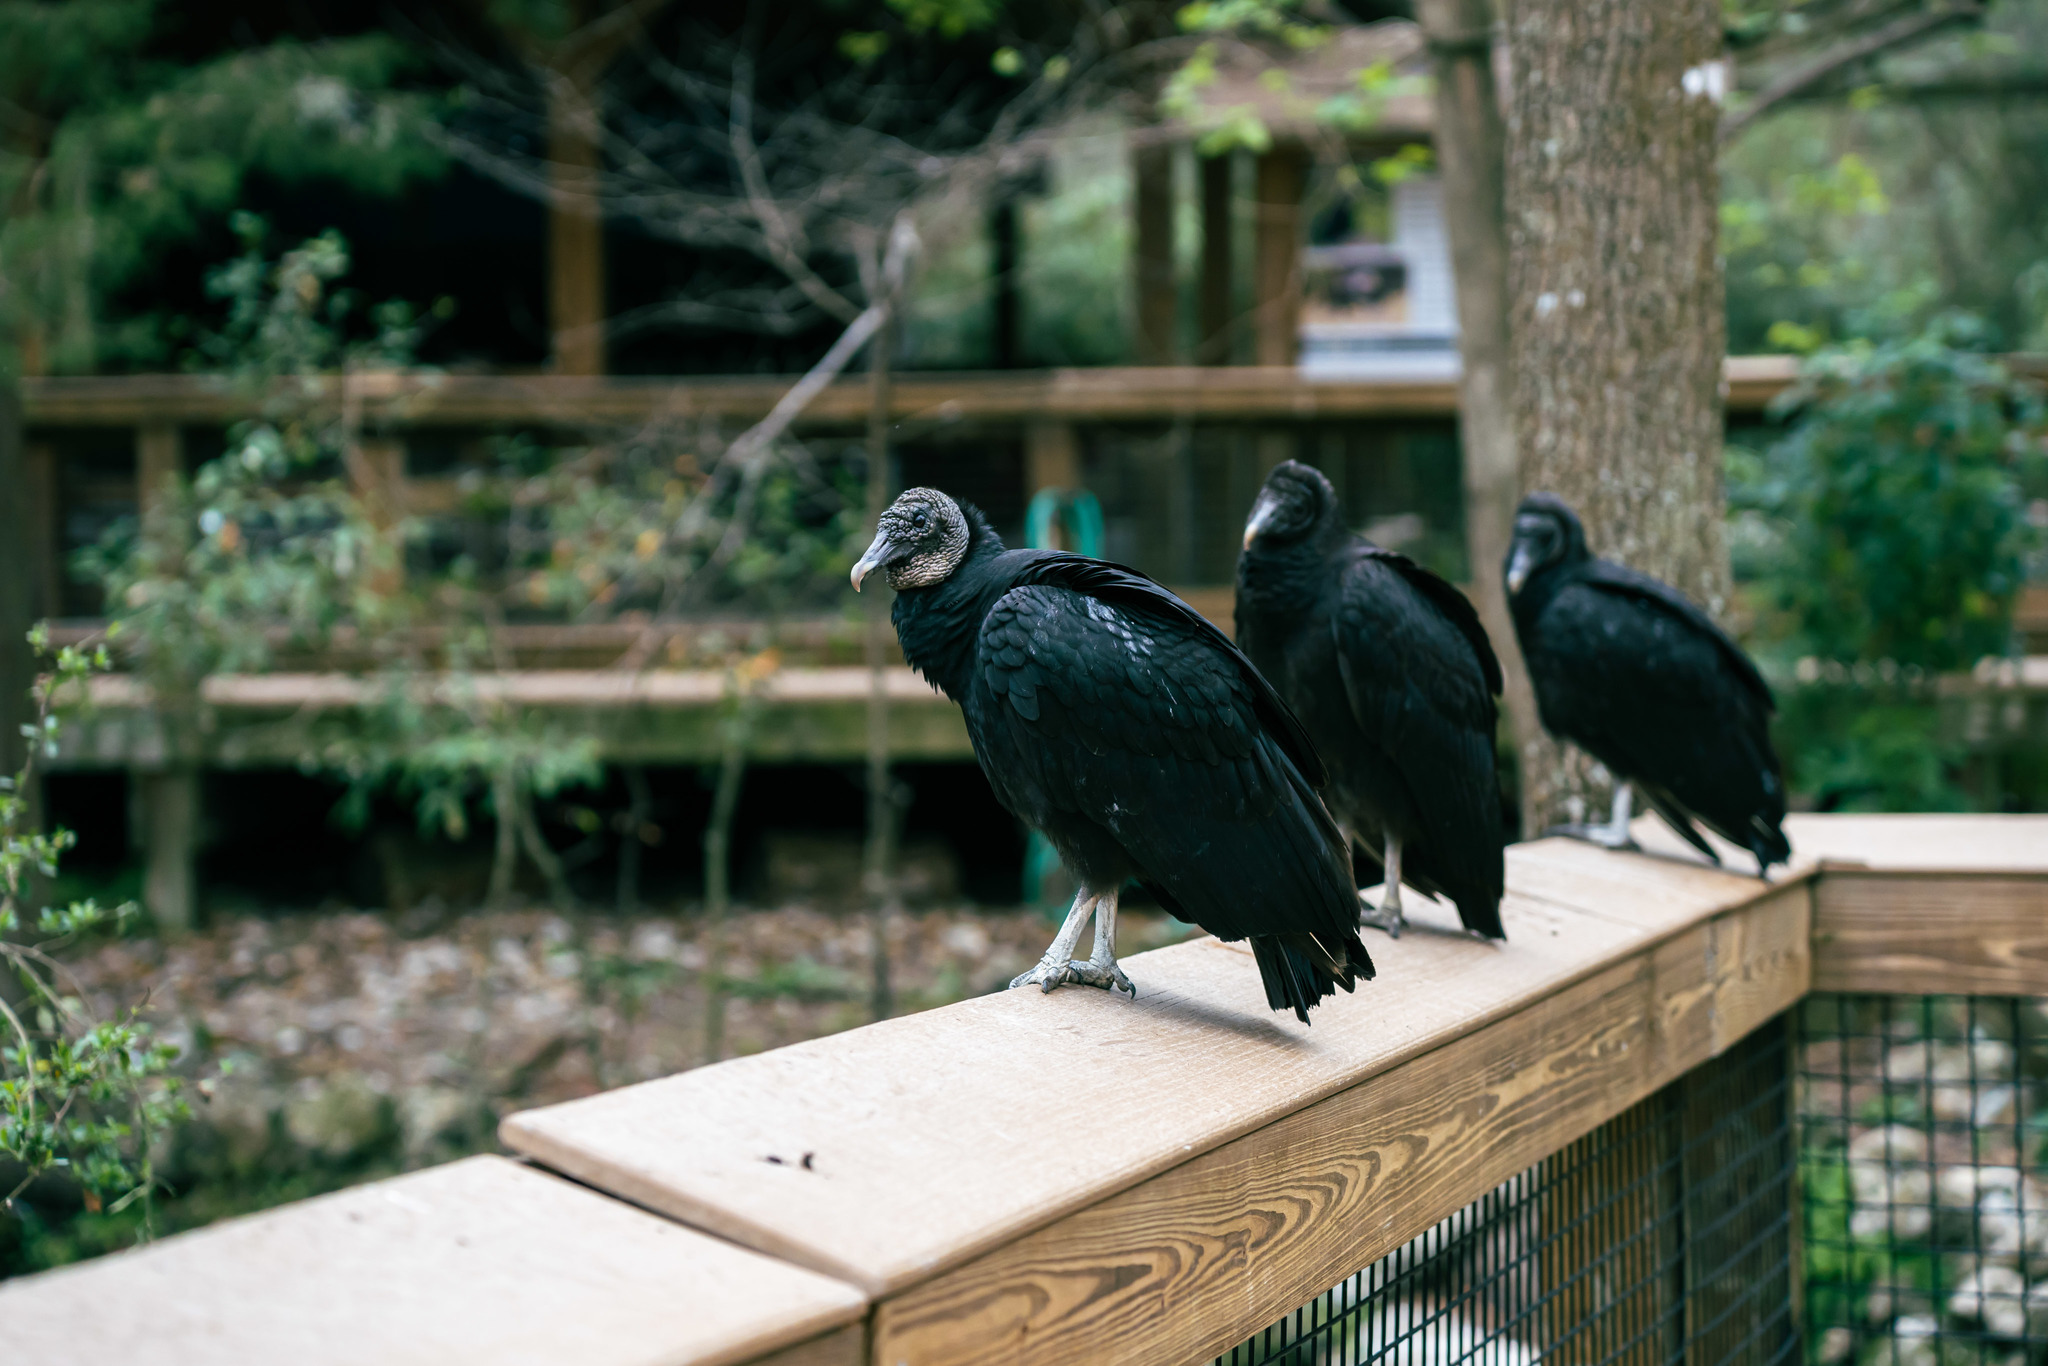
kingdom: Animalia
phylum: Chordata
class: Aves
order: Accipitriformes
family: Cathartidae
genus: Coragyps
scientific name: Coragyps atratus
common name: Black vulture
